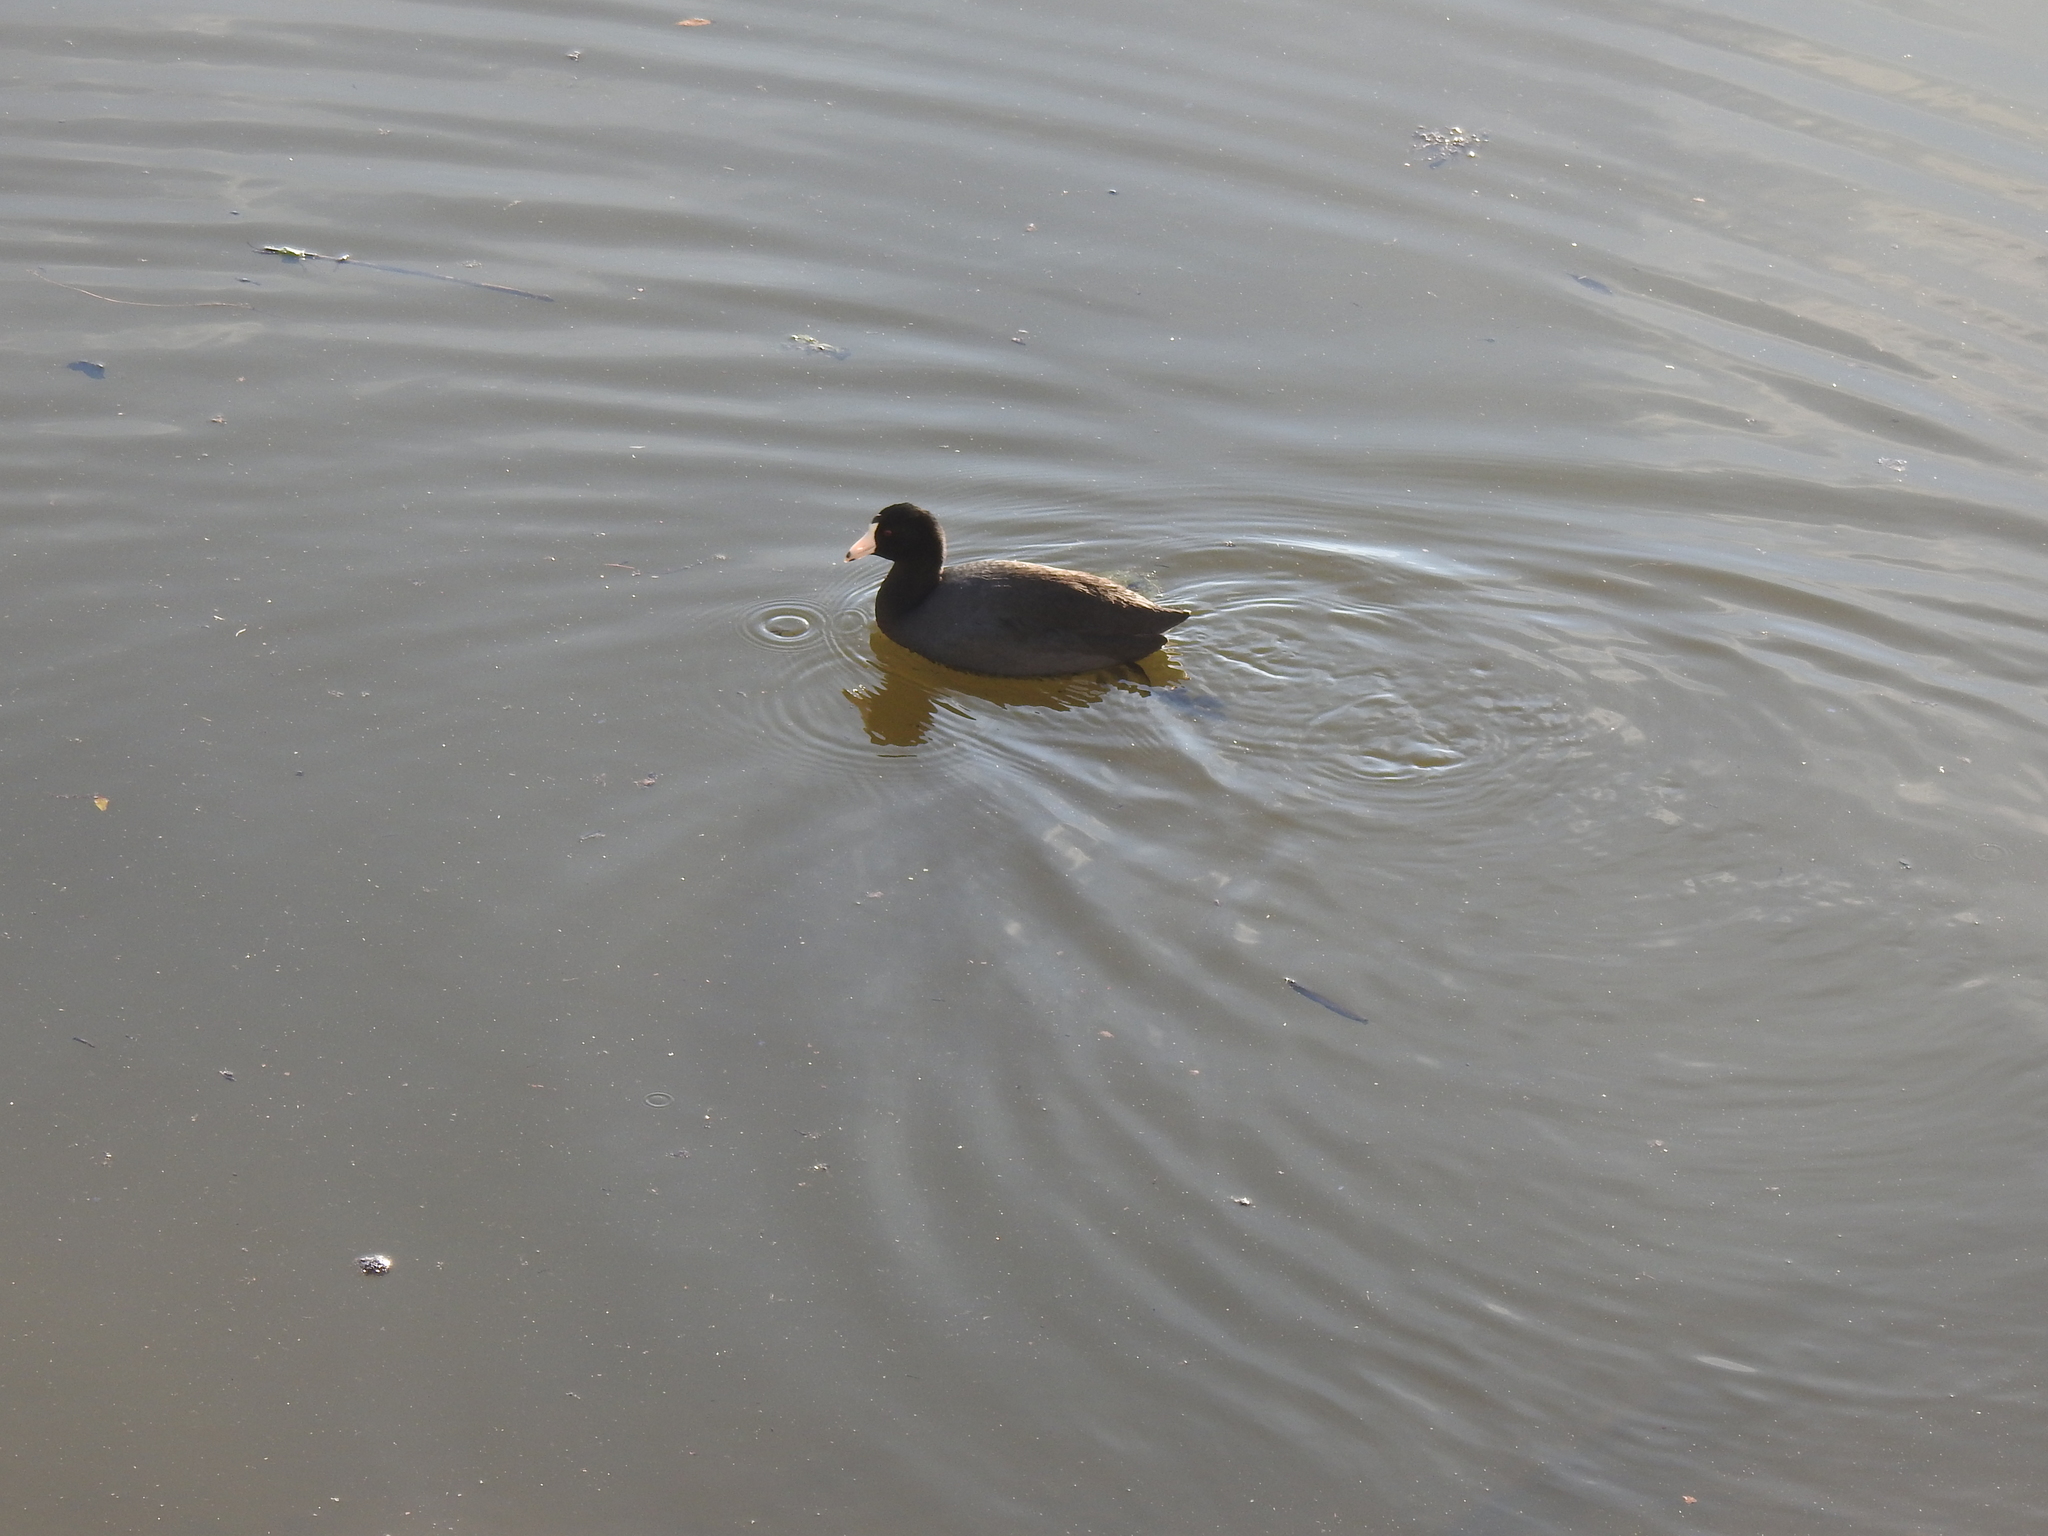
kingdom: Animalia
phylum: Chordata
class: Aves
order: Gruiformes
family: Rallidae
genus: Fulica
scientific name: Fulica americana
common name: American coot
